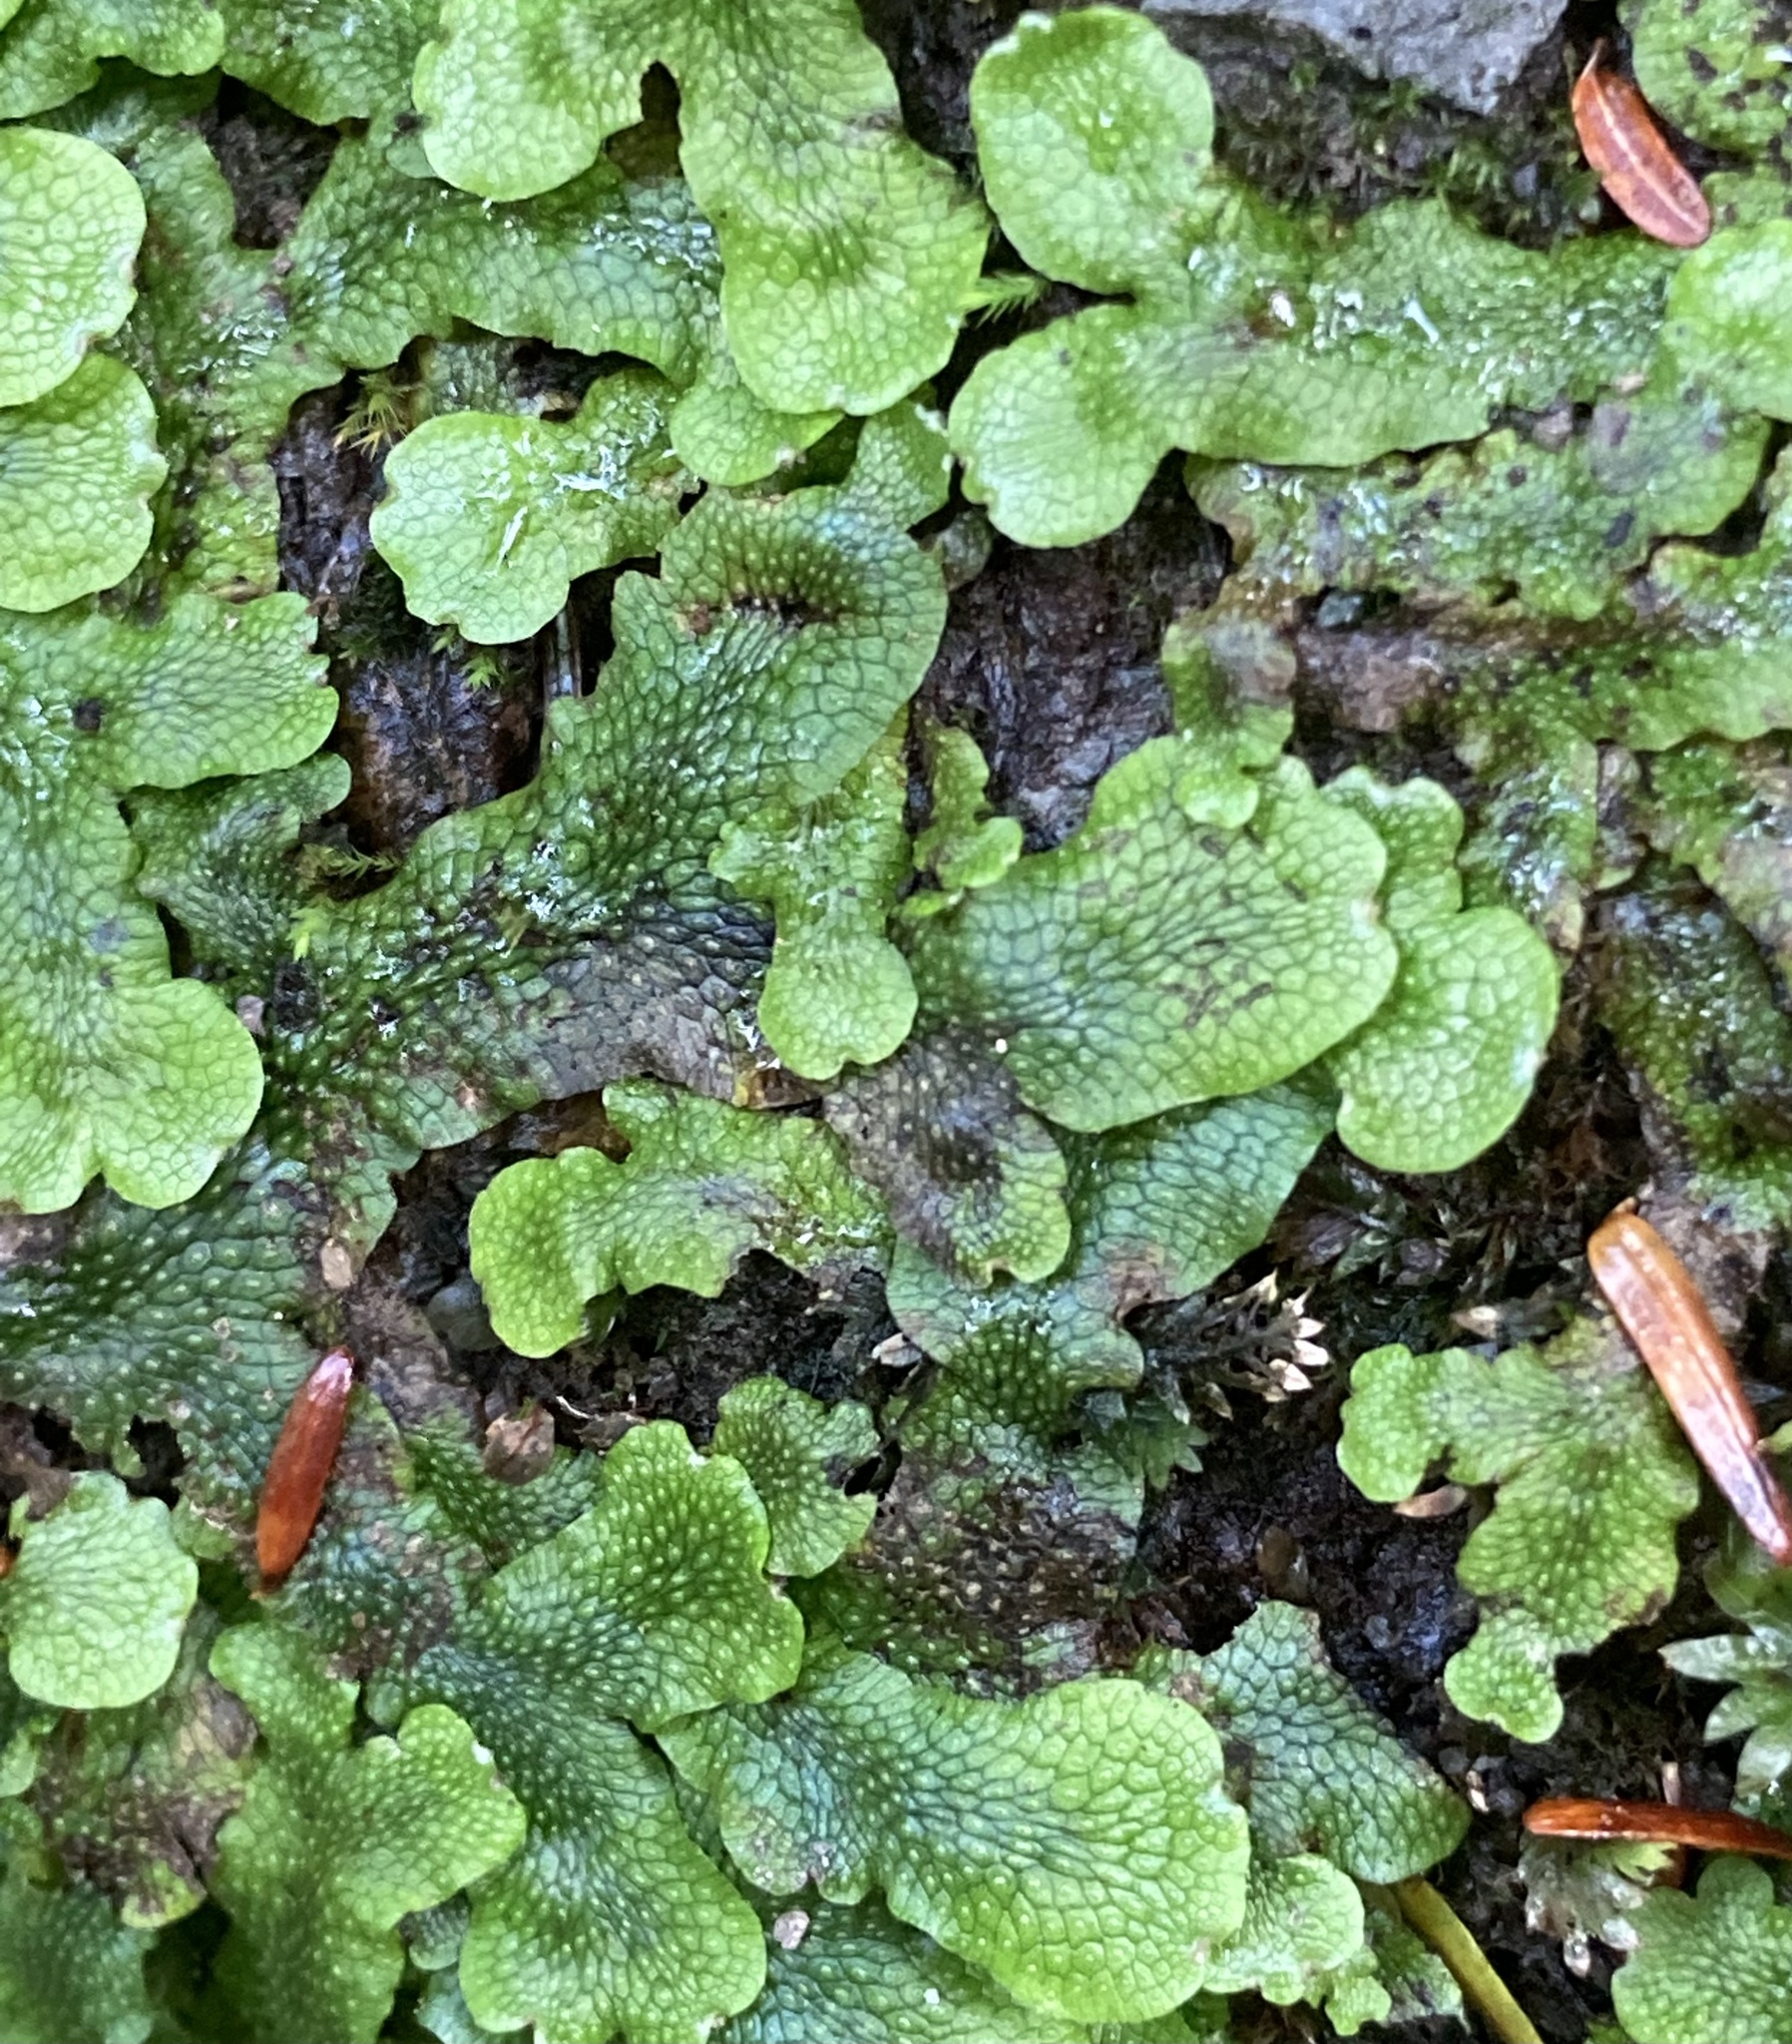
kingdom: Plantae
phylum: Marchantiophyta
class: Marchantiopsida
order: Marchantiales
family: Conocephalaceae
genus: Conocephalum
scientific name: Conocephalum salebrosum
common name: Cat-tongue liverwort
